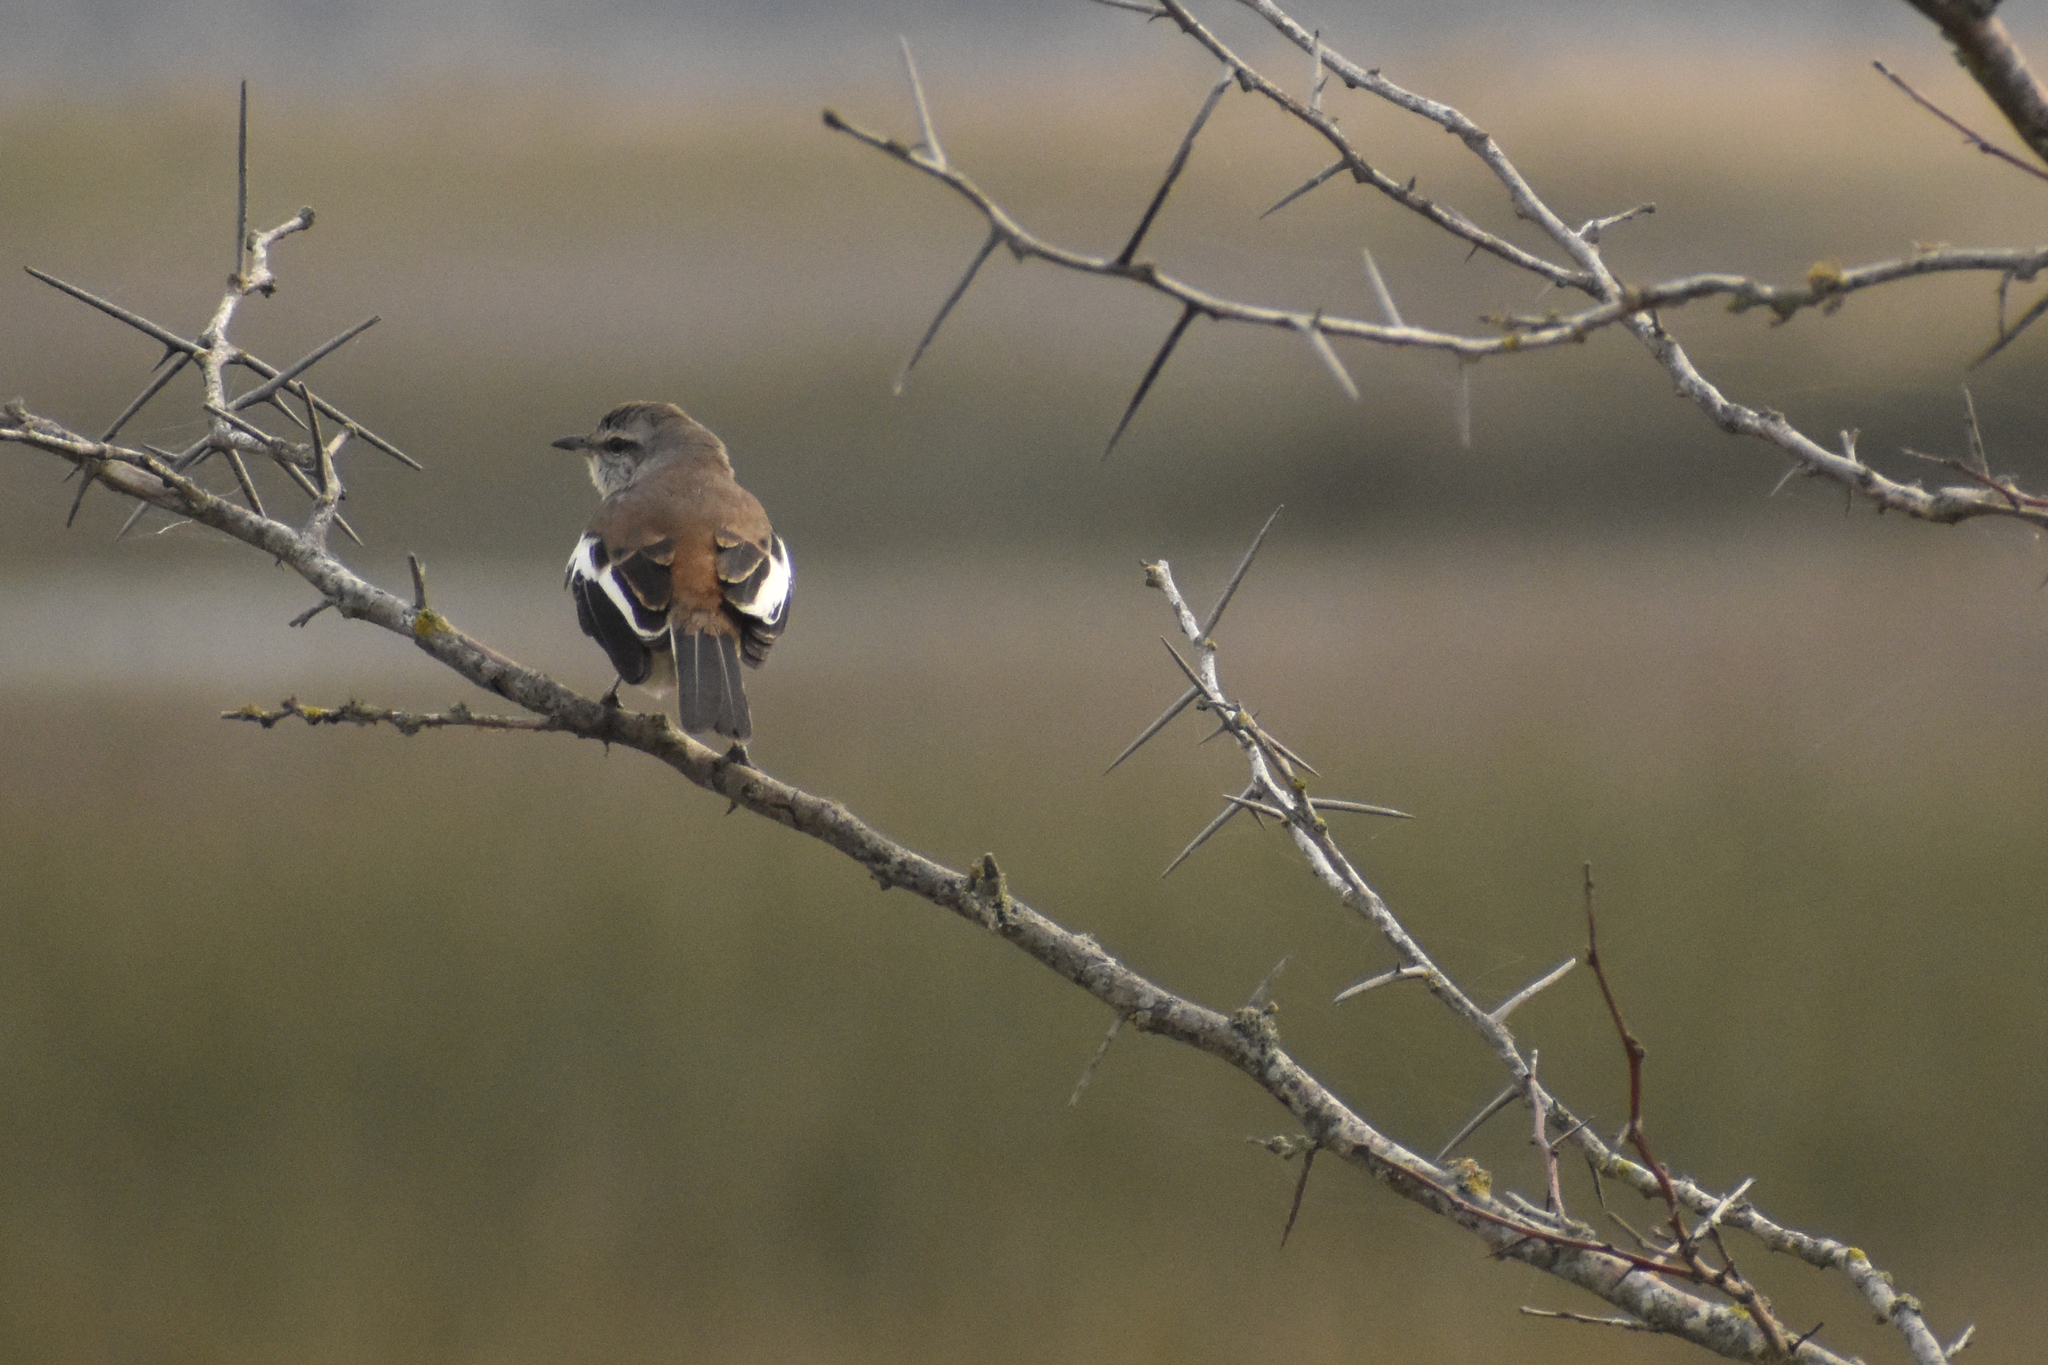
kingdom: Animalia
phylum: Chordata
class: Aves
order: Passeriformes
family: Mimidae
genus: Mimus
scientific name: Mimus triurus
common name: White-banded mockingbird
